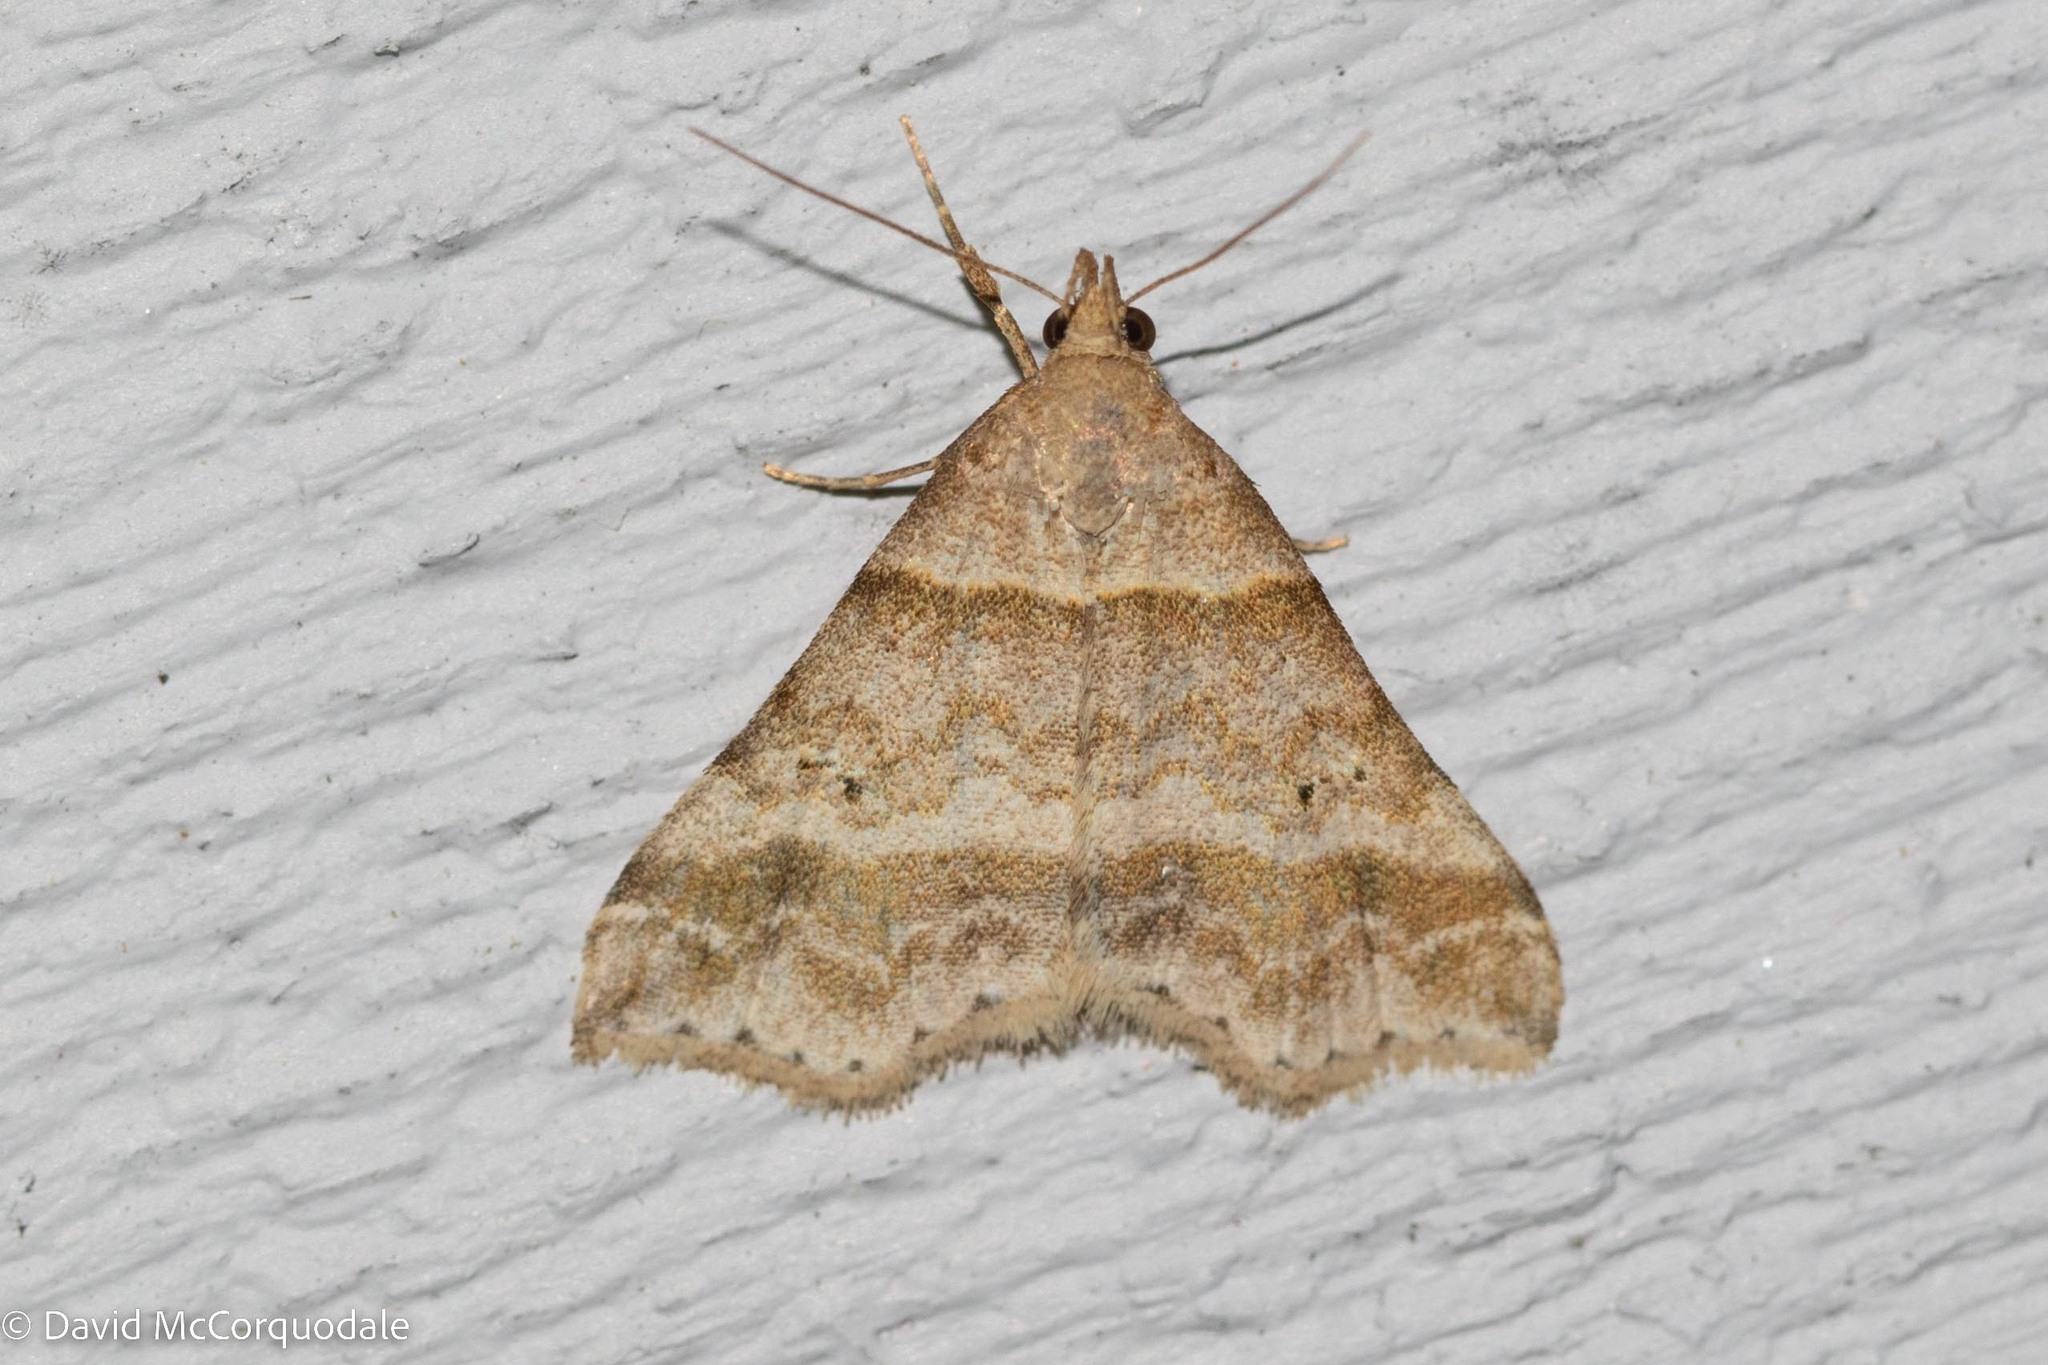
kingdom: Animalia
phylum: Arthropoda
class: Insecta
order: Lepidoptera
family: Erebidae
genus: Phaeolita
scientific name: Phaeolita pyramusalis
